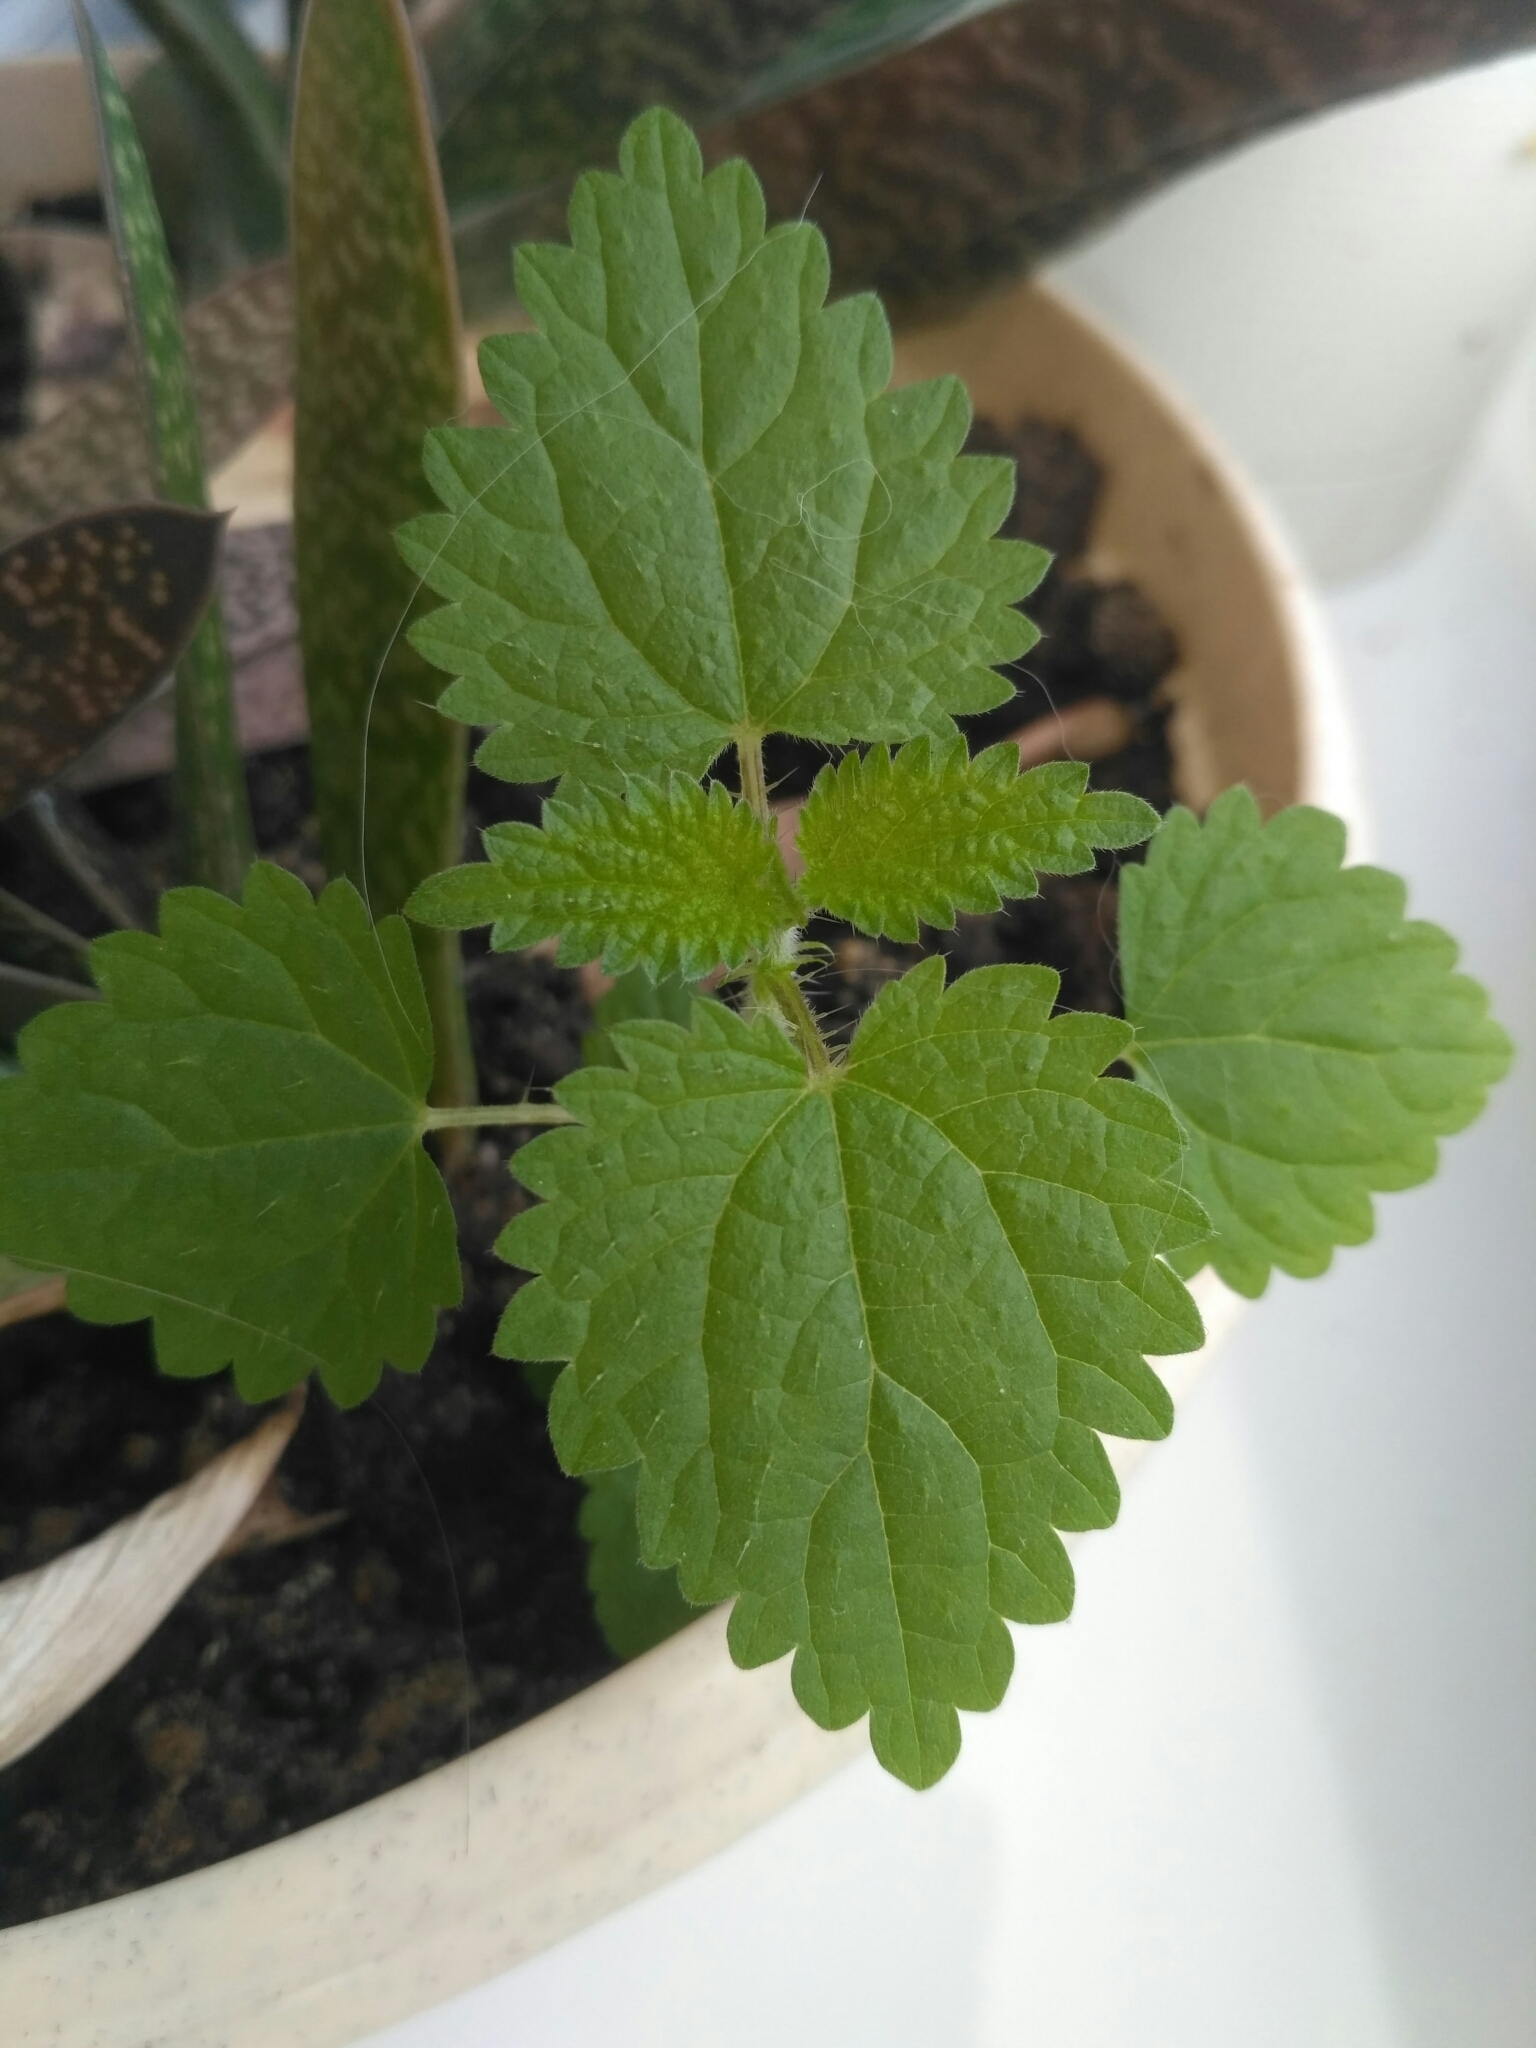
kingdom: Plantae
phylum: Tracheophyta
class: Magnoliopsida
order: Rosales
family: Urticaceae
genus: Urtica
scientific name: Urtica dioica
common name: Common nettle
